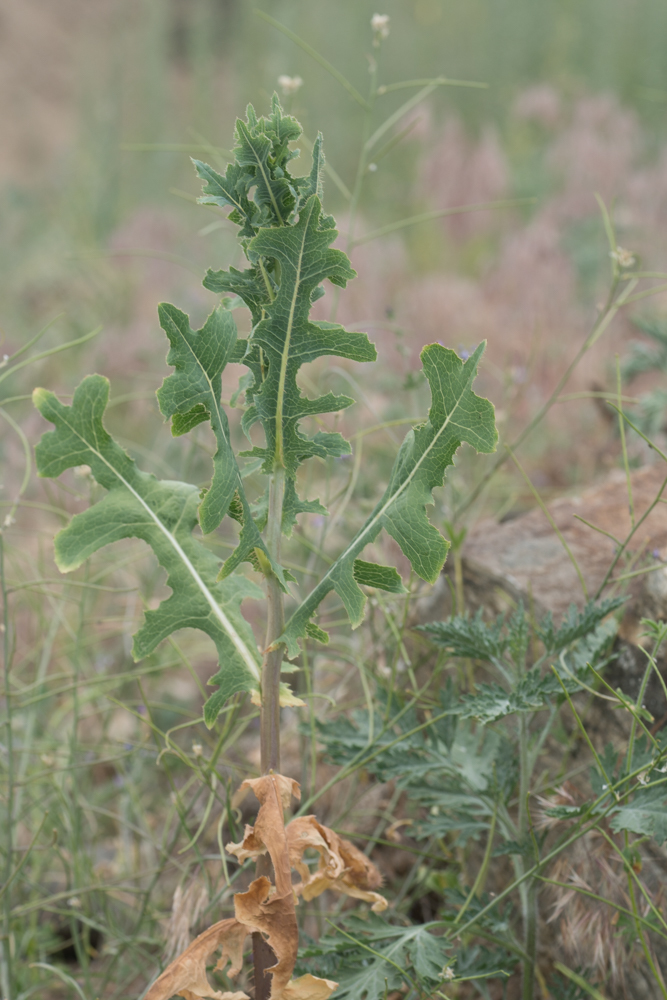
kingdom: Plantae
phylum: Tracheophyta
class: Magnoliopsida
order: Asterales
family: Asteraceae
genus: Lactuca
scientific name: Lactuca serriola
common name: Prickly lettuce
